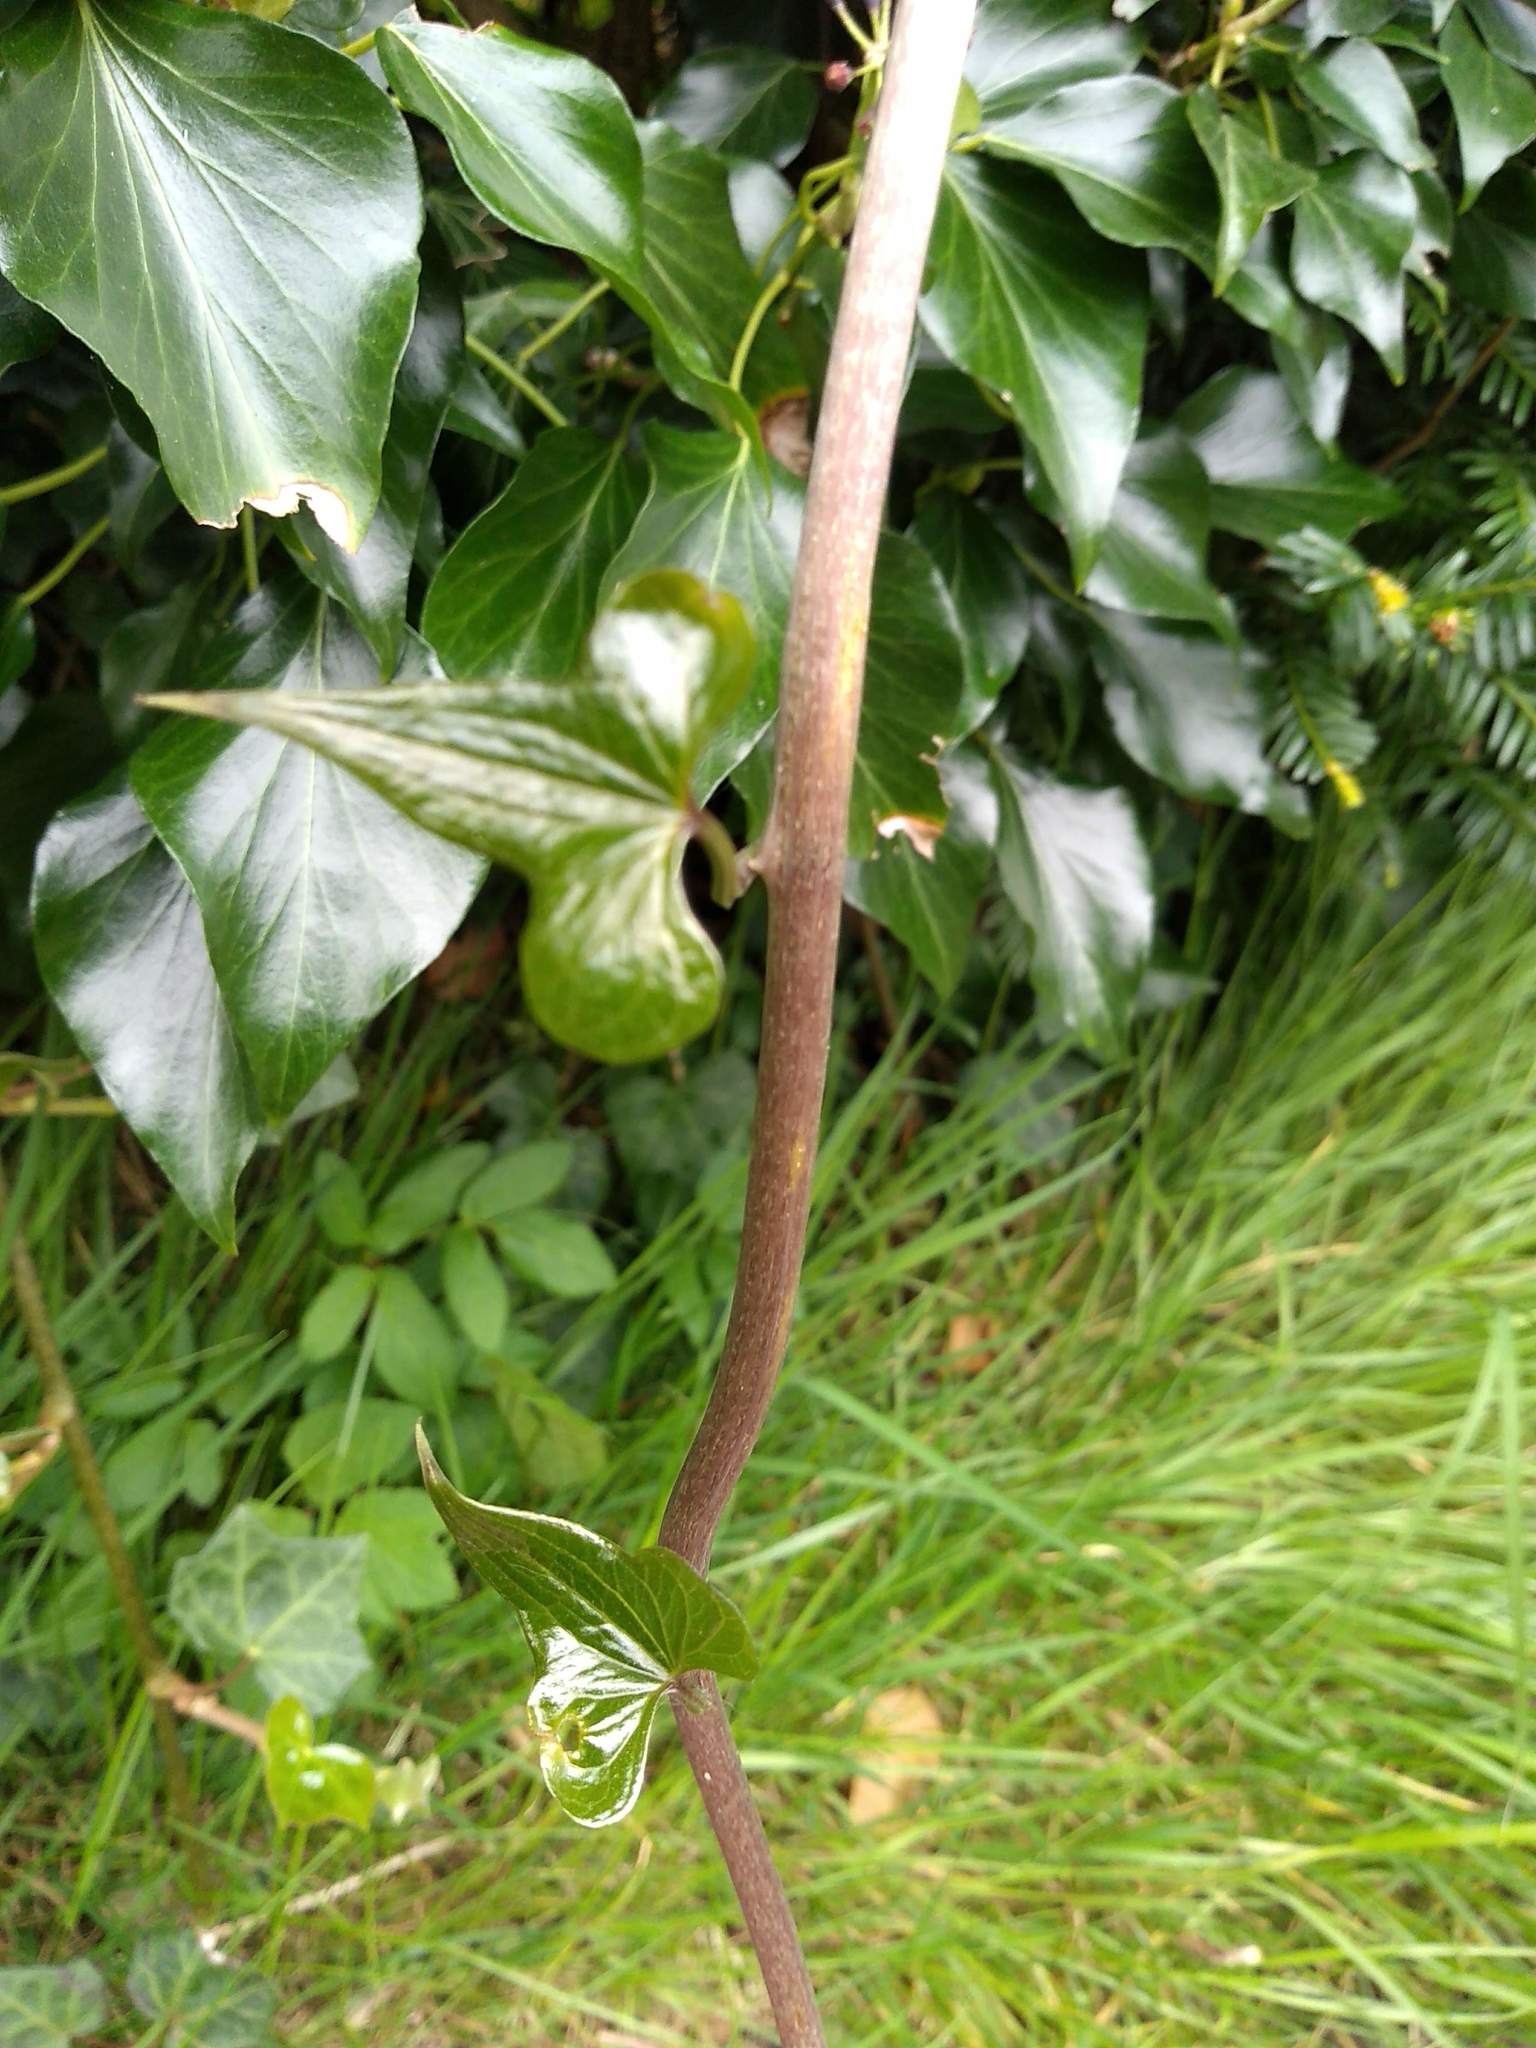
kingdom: Plantae
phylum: Tracheophyta
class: Liliopsida
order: Dioscoreales
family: Dioscoreaceae
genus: Dioscorea
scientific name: Dioscorea communis
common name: Black-bindweed
